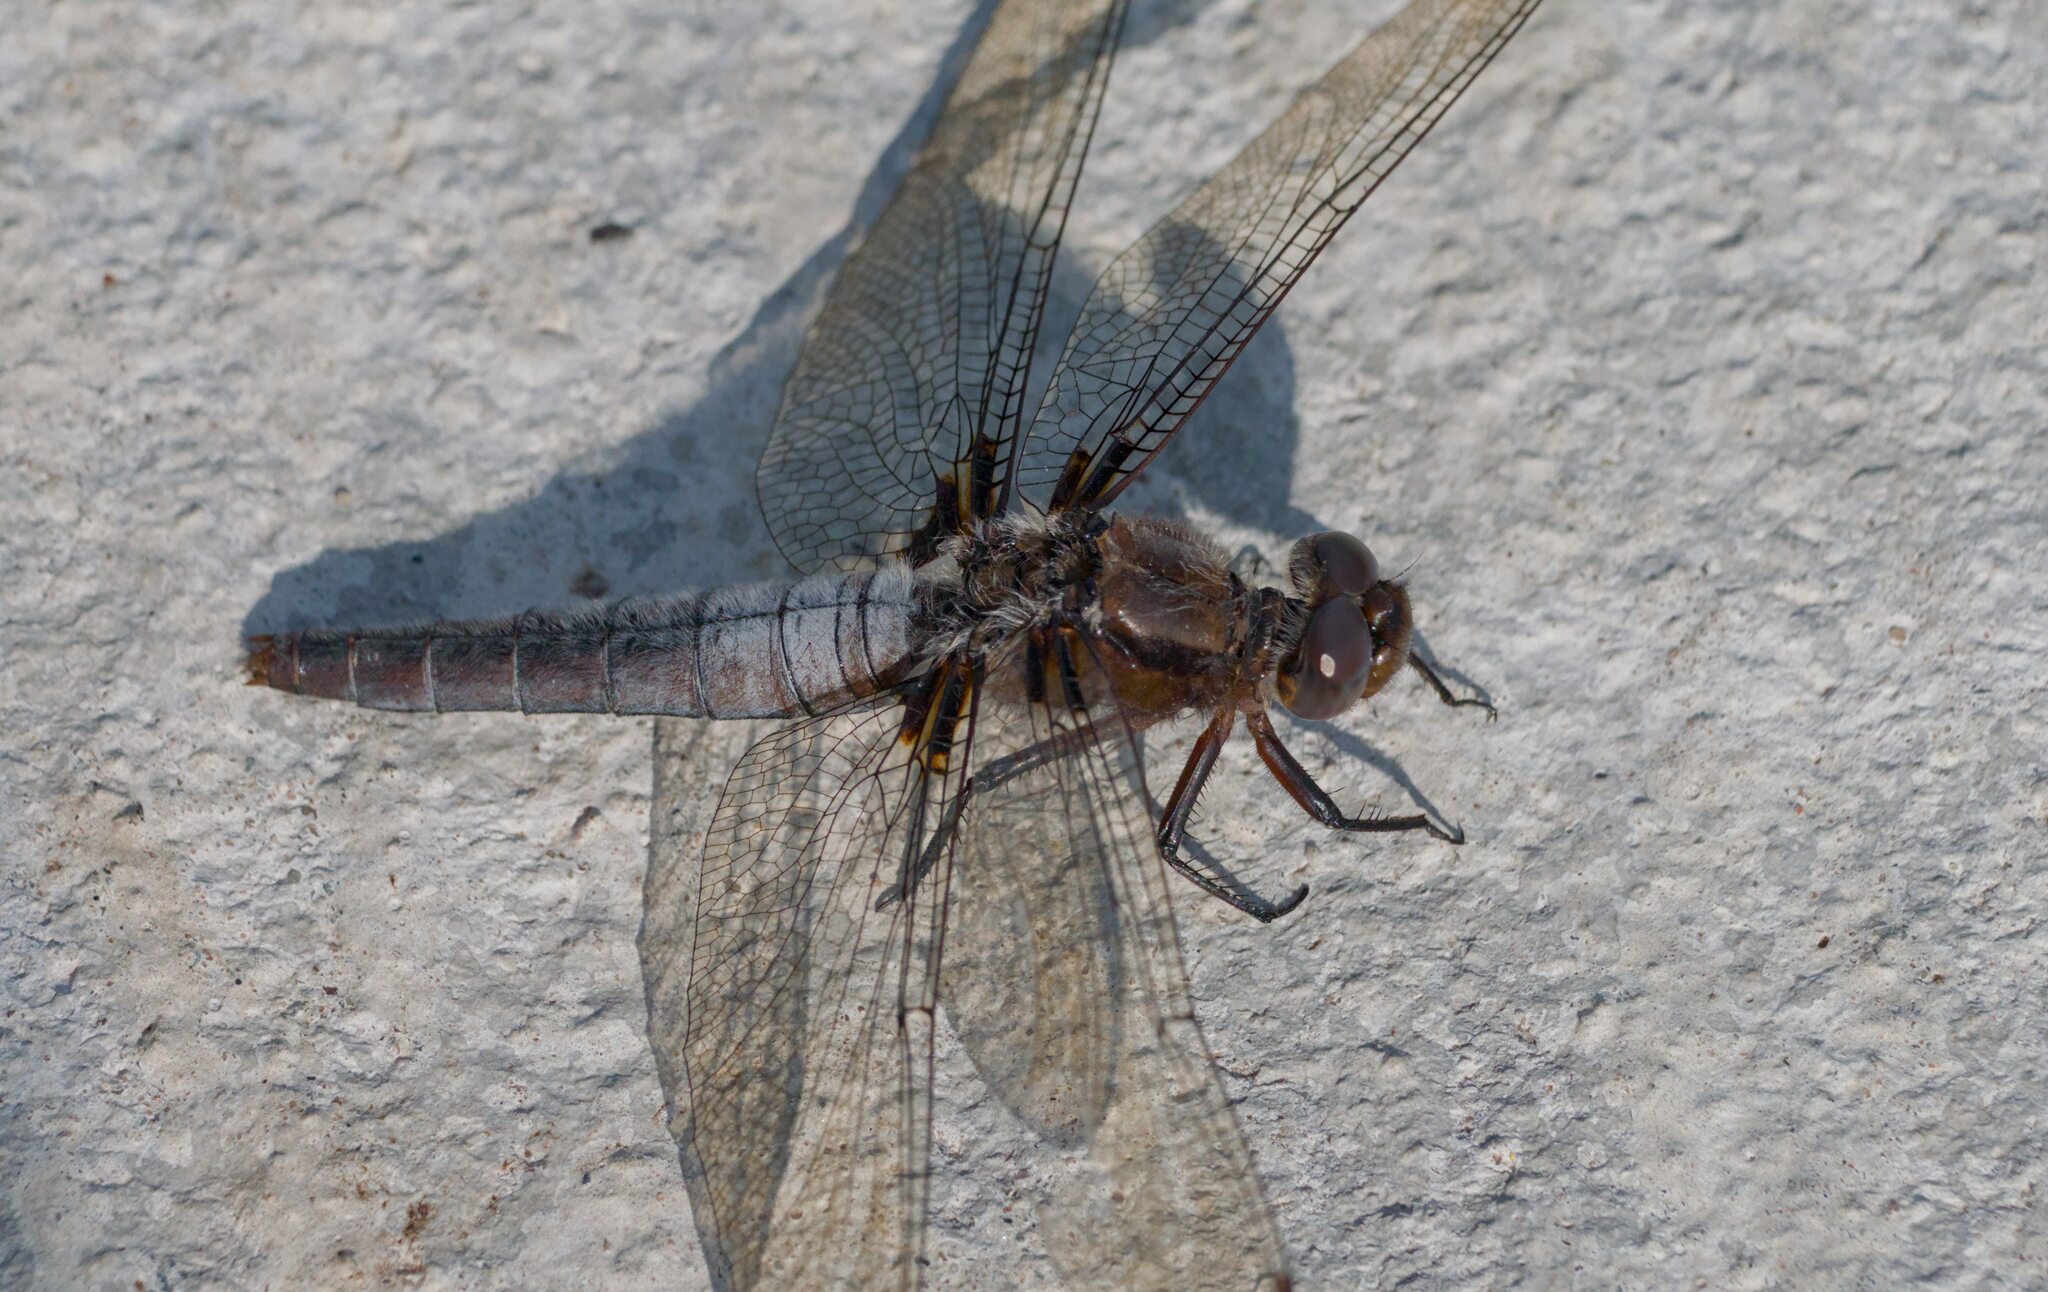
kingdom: Animalia
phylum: Arthropoda
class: Insecta
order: Odonata
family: Libellulidae
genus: Ladona
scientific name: Ladona julia
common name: Chalk-fronted corporal
